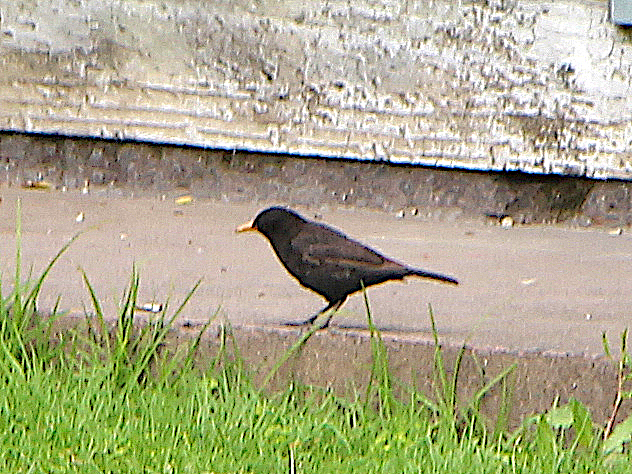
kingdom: Animalia
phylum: Chordata
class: Aves
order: Passeriformes
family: Turdidae
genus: Turdus
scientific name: Turdus merula
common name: Common blackbird
